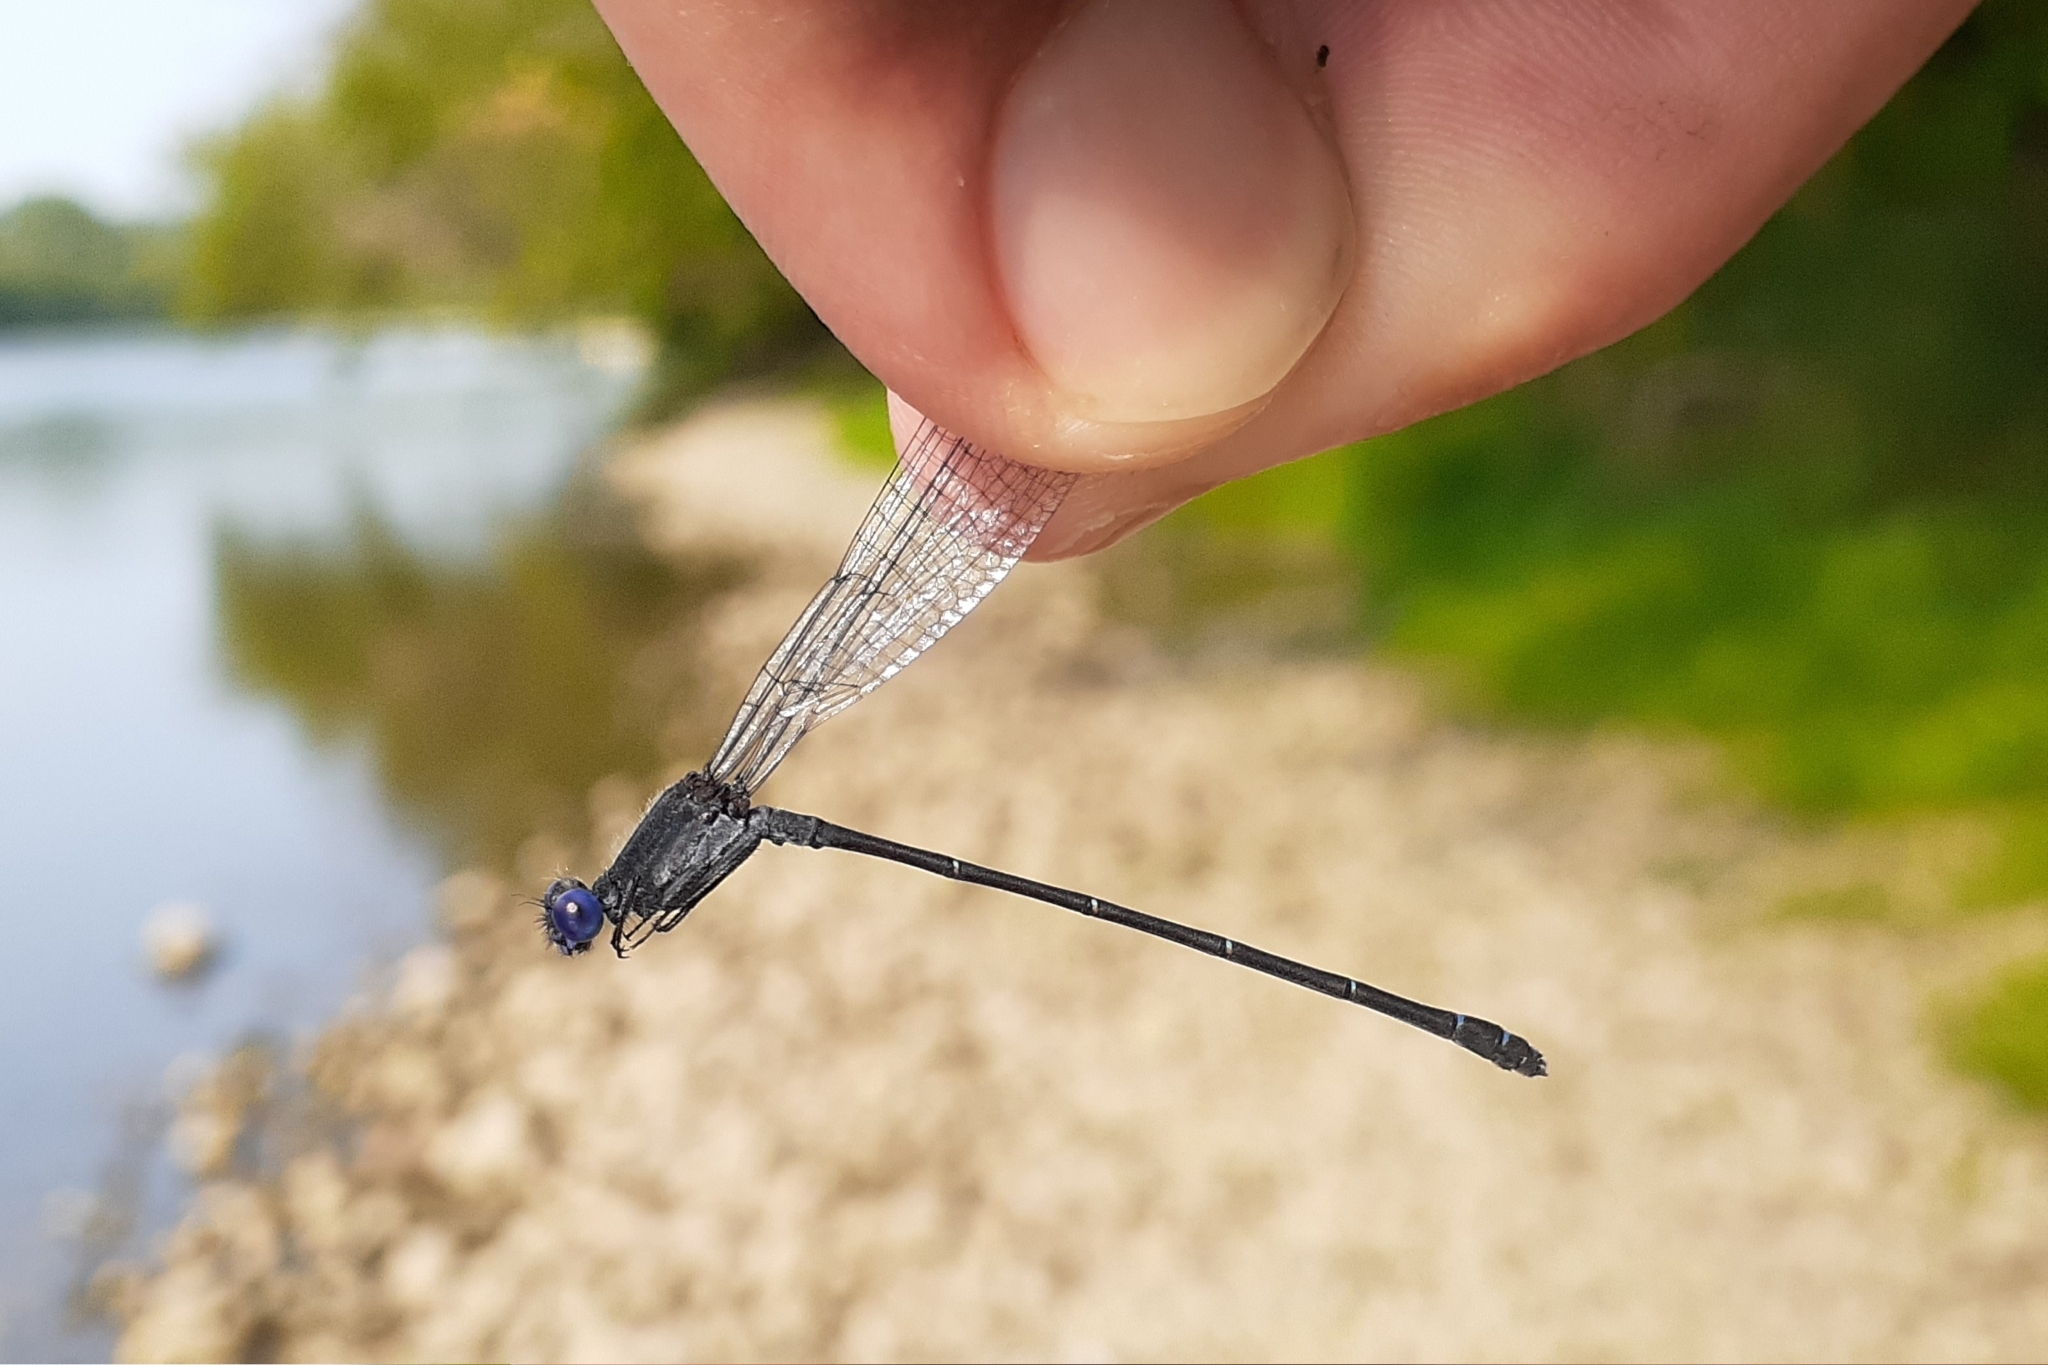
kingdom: Animalia
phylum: Arthropoda
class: Insecta
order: Odonata
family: Coenagrionidae
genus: Argia
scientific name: Argia translata
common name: Dusky dancer
